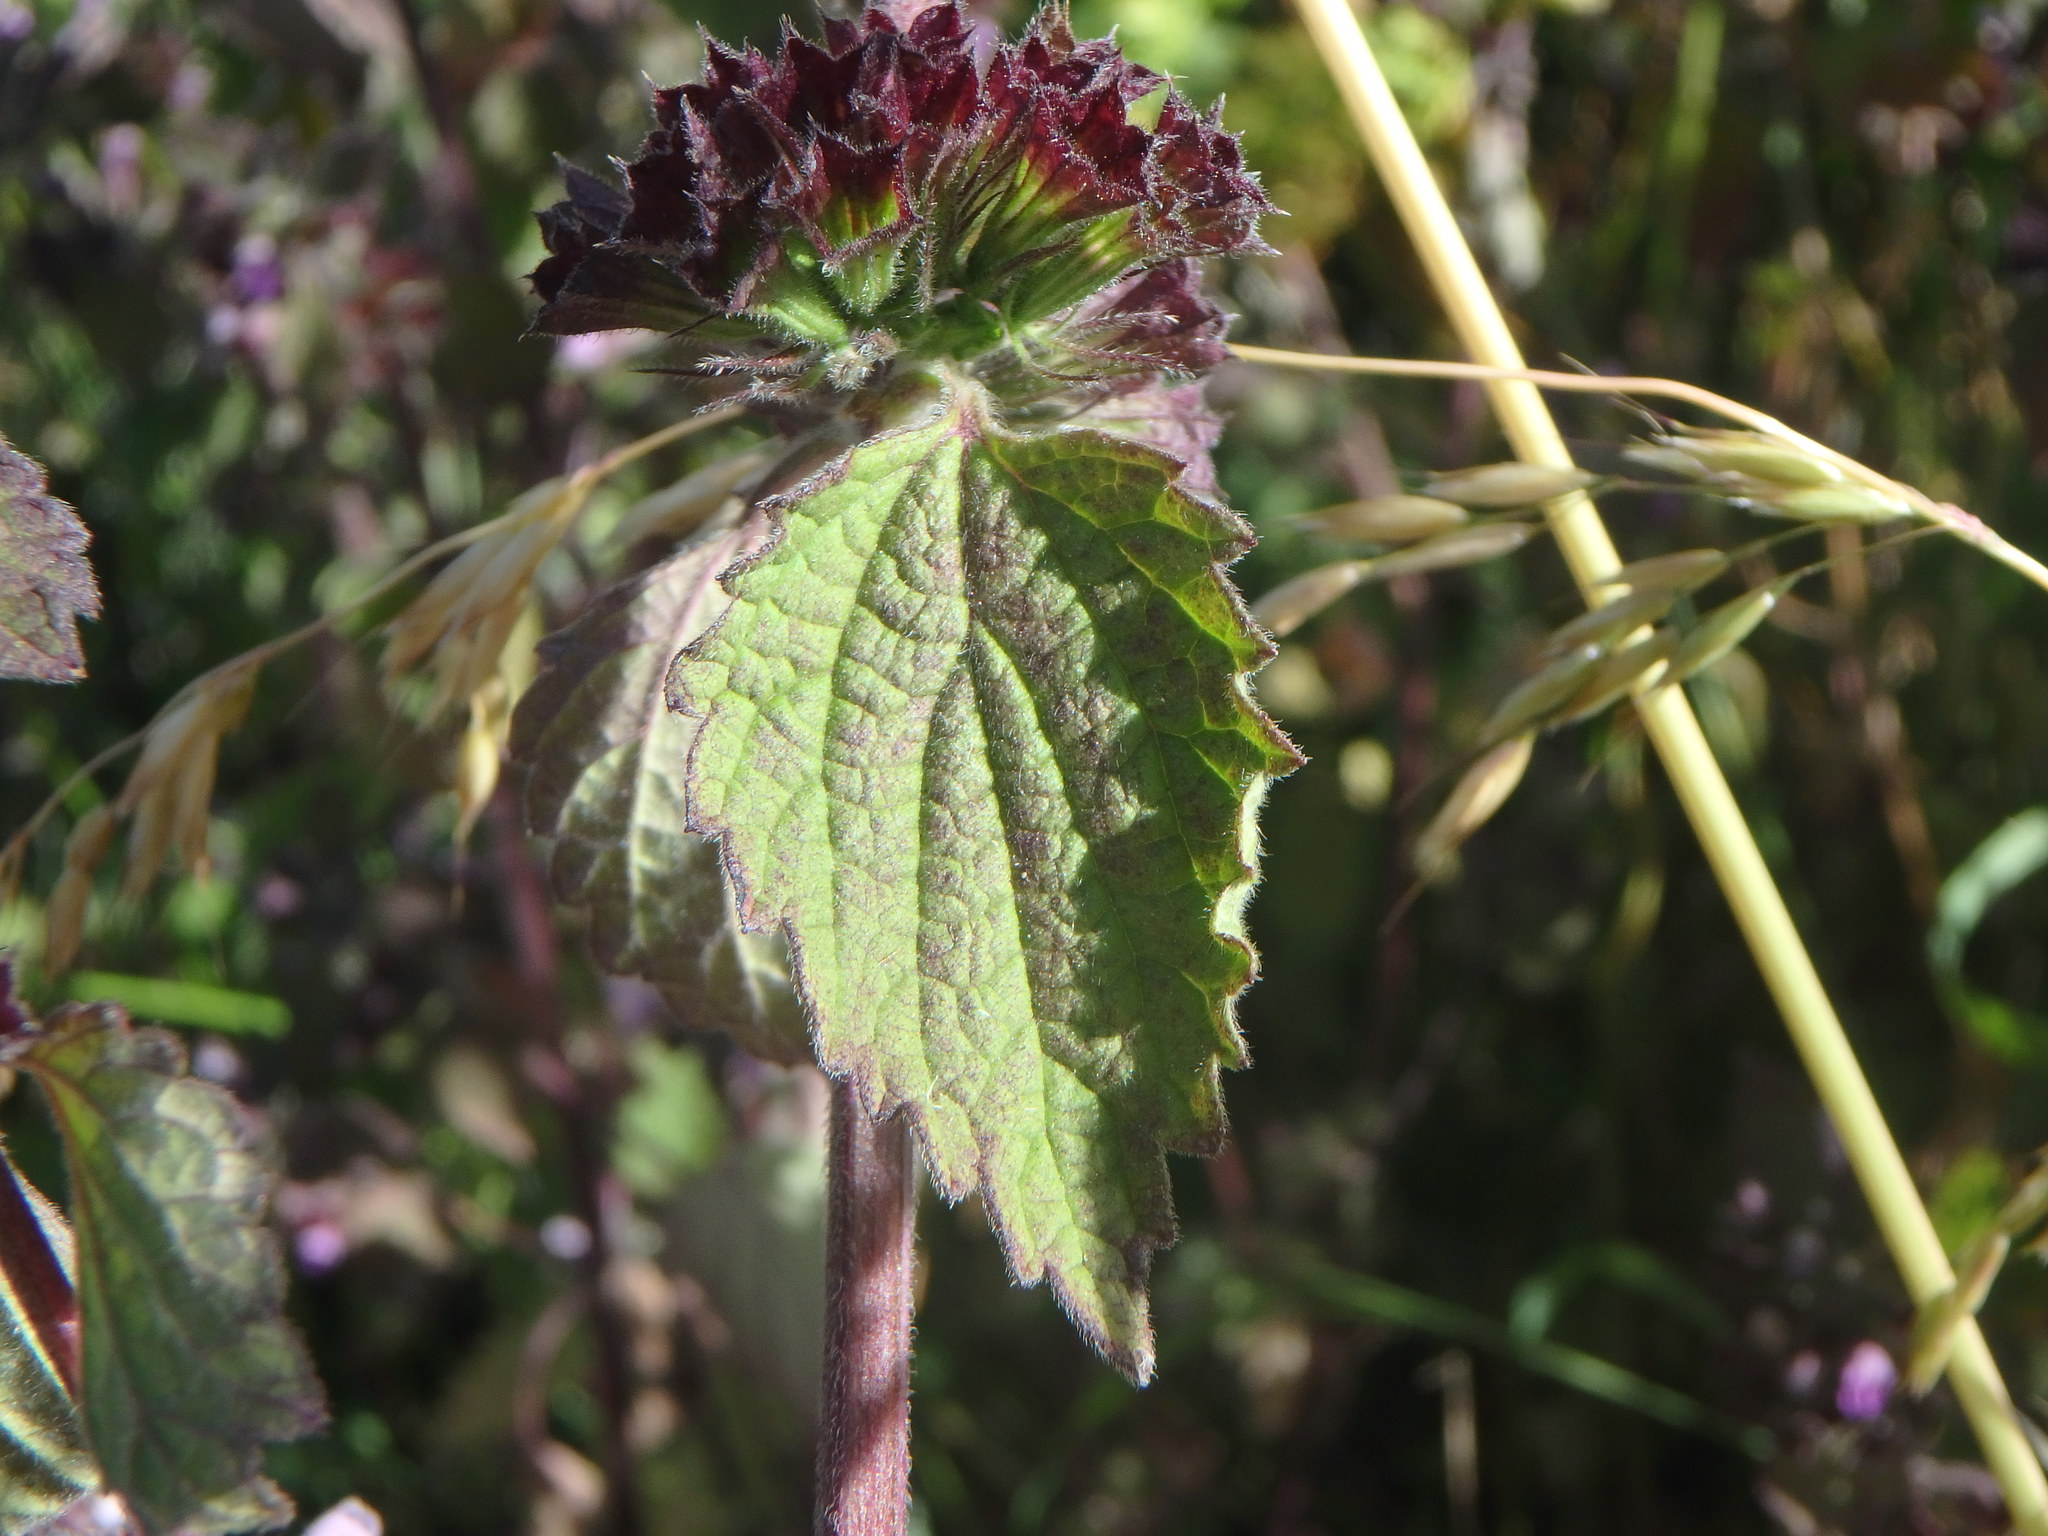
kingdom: Plantae
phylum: Tracheophyta
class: Magnoliopsida
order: Lamiales
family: Lamiaceae
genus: Ballota
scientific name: Ballota nigra
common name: Black horehound
